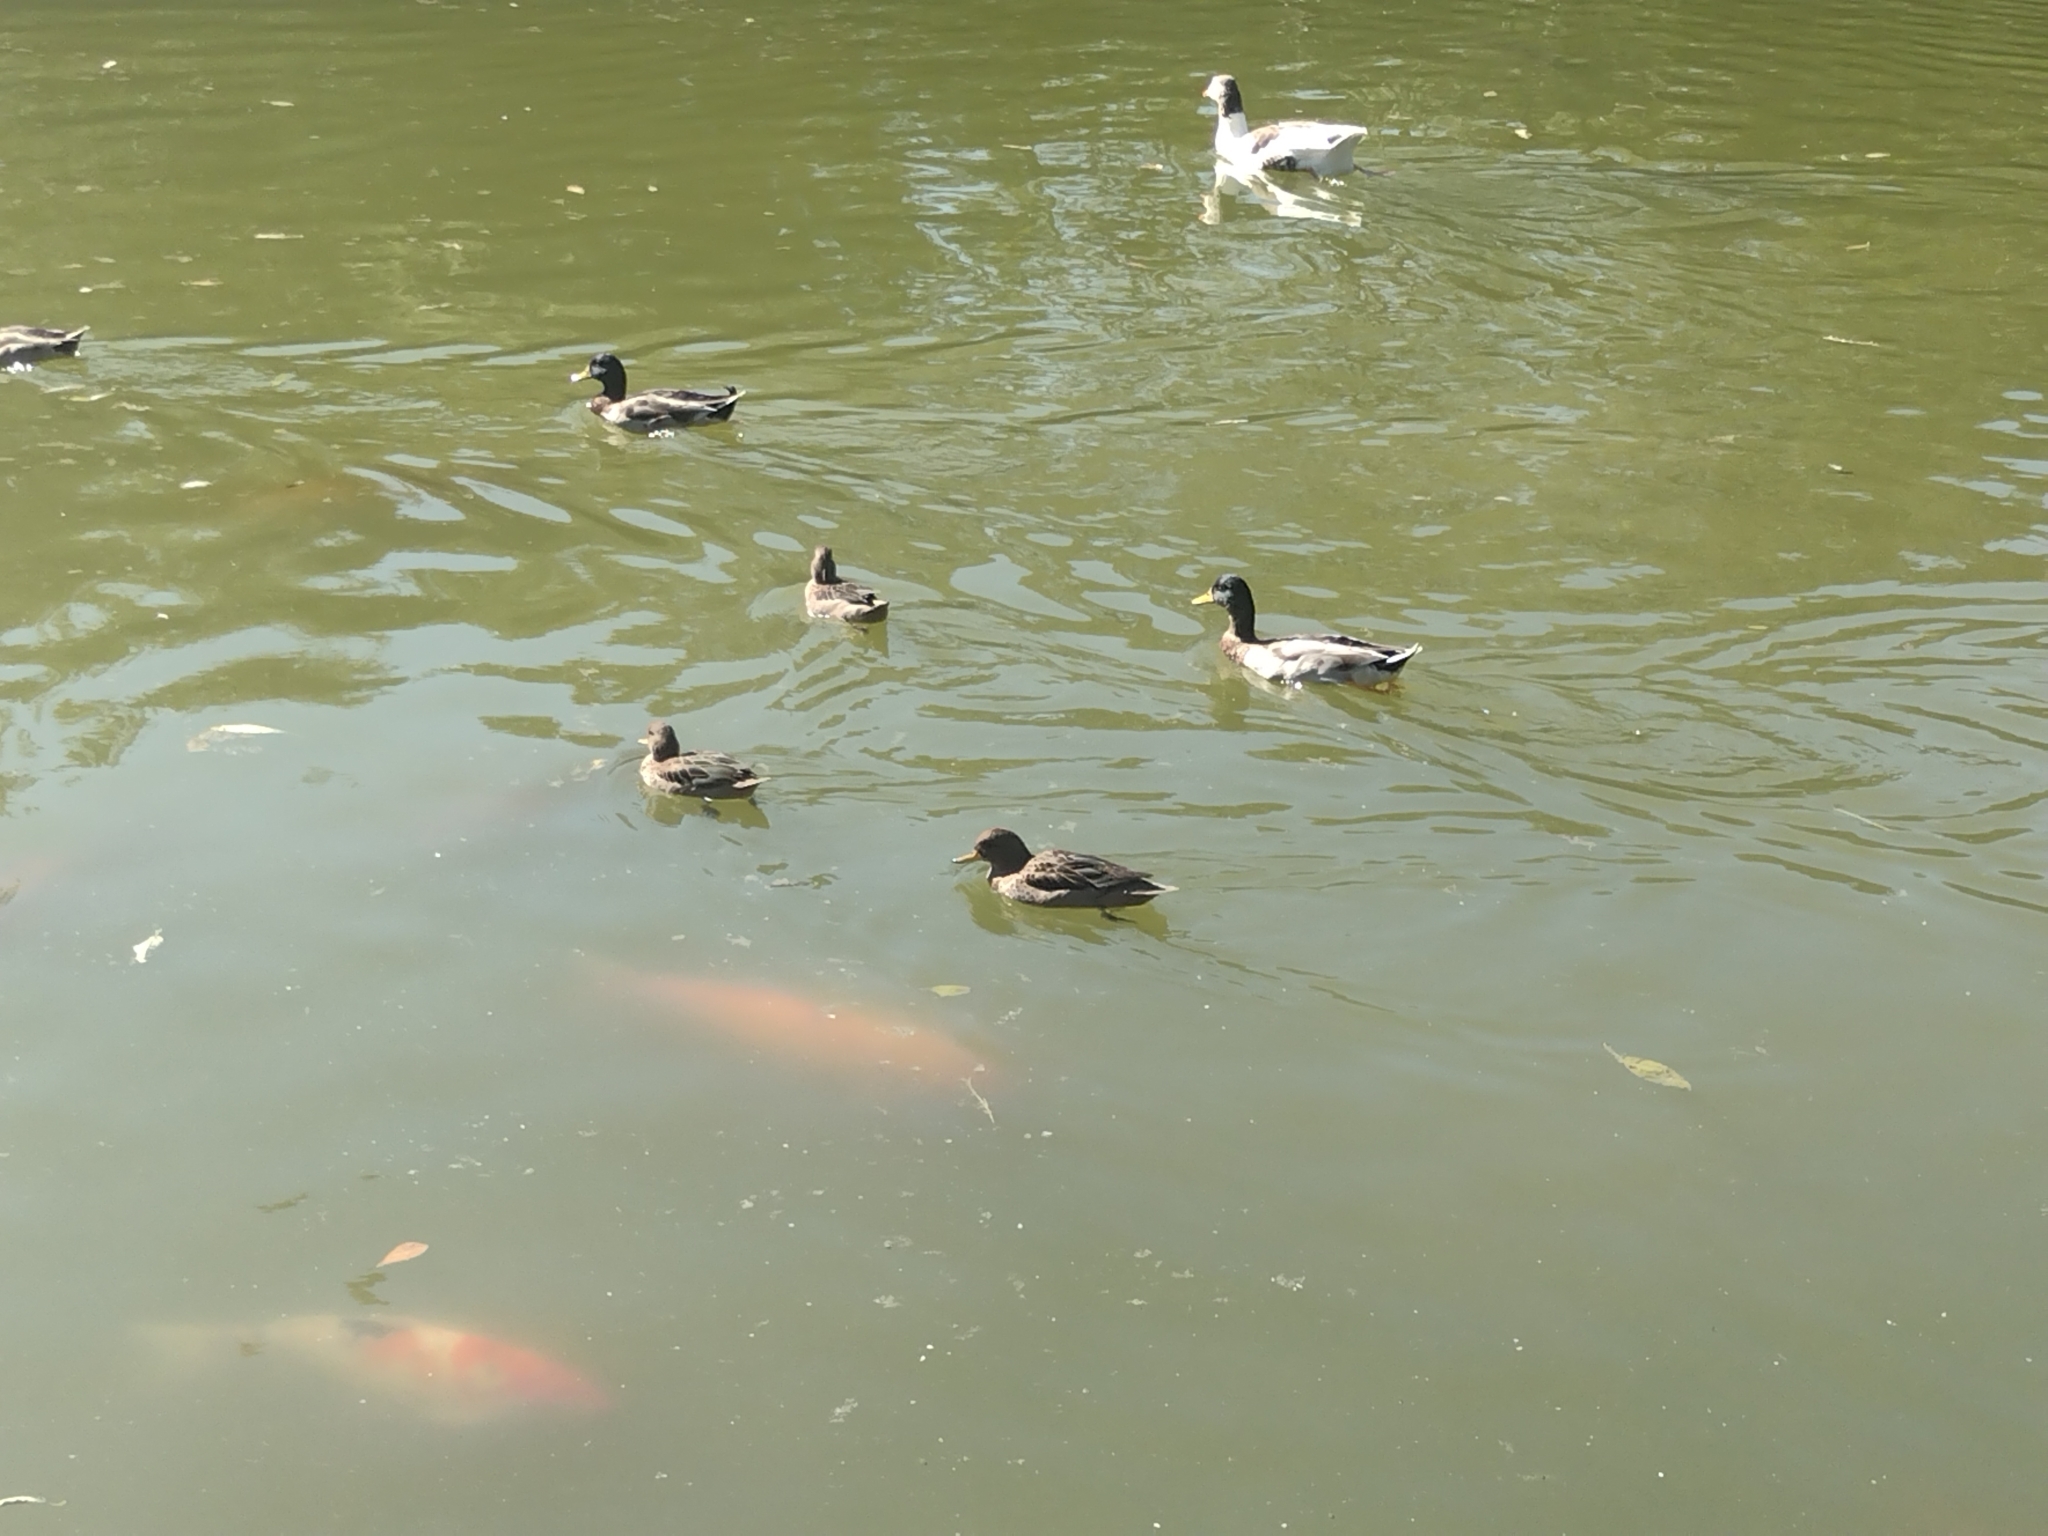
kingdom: Animalia
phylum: Chordata
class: Aves
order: Anseriformes
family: Anatidae
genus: Anas
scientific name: Anas flavirostris
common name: Yellow-billed teal
